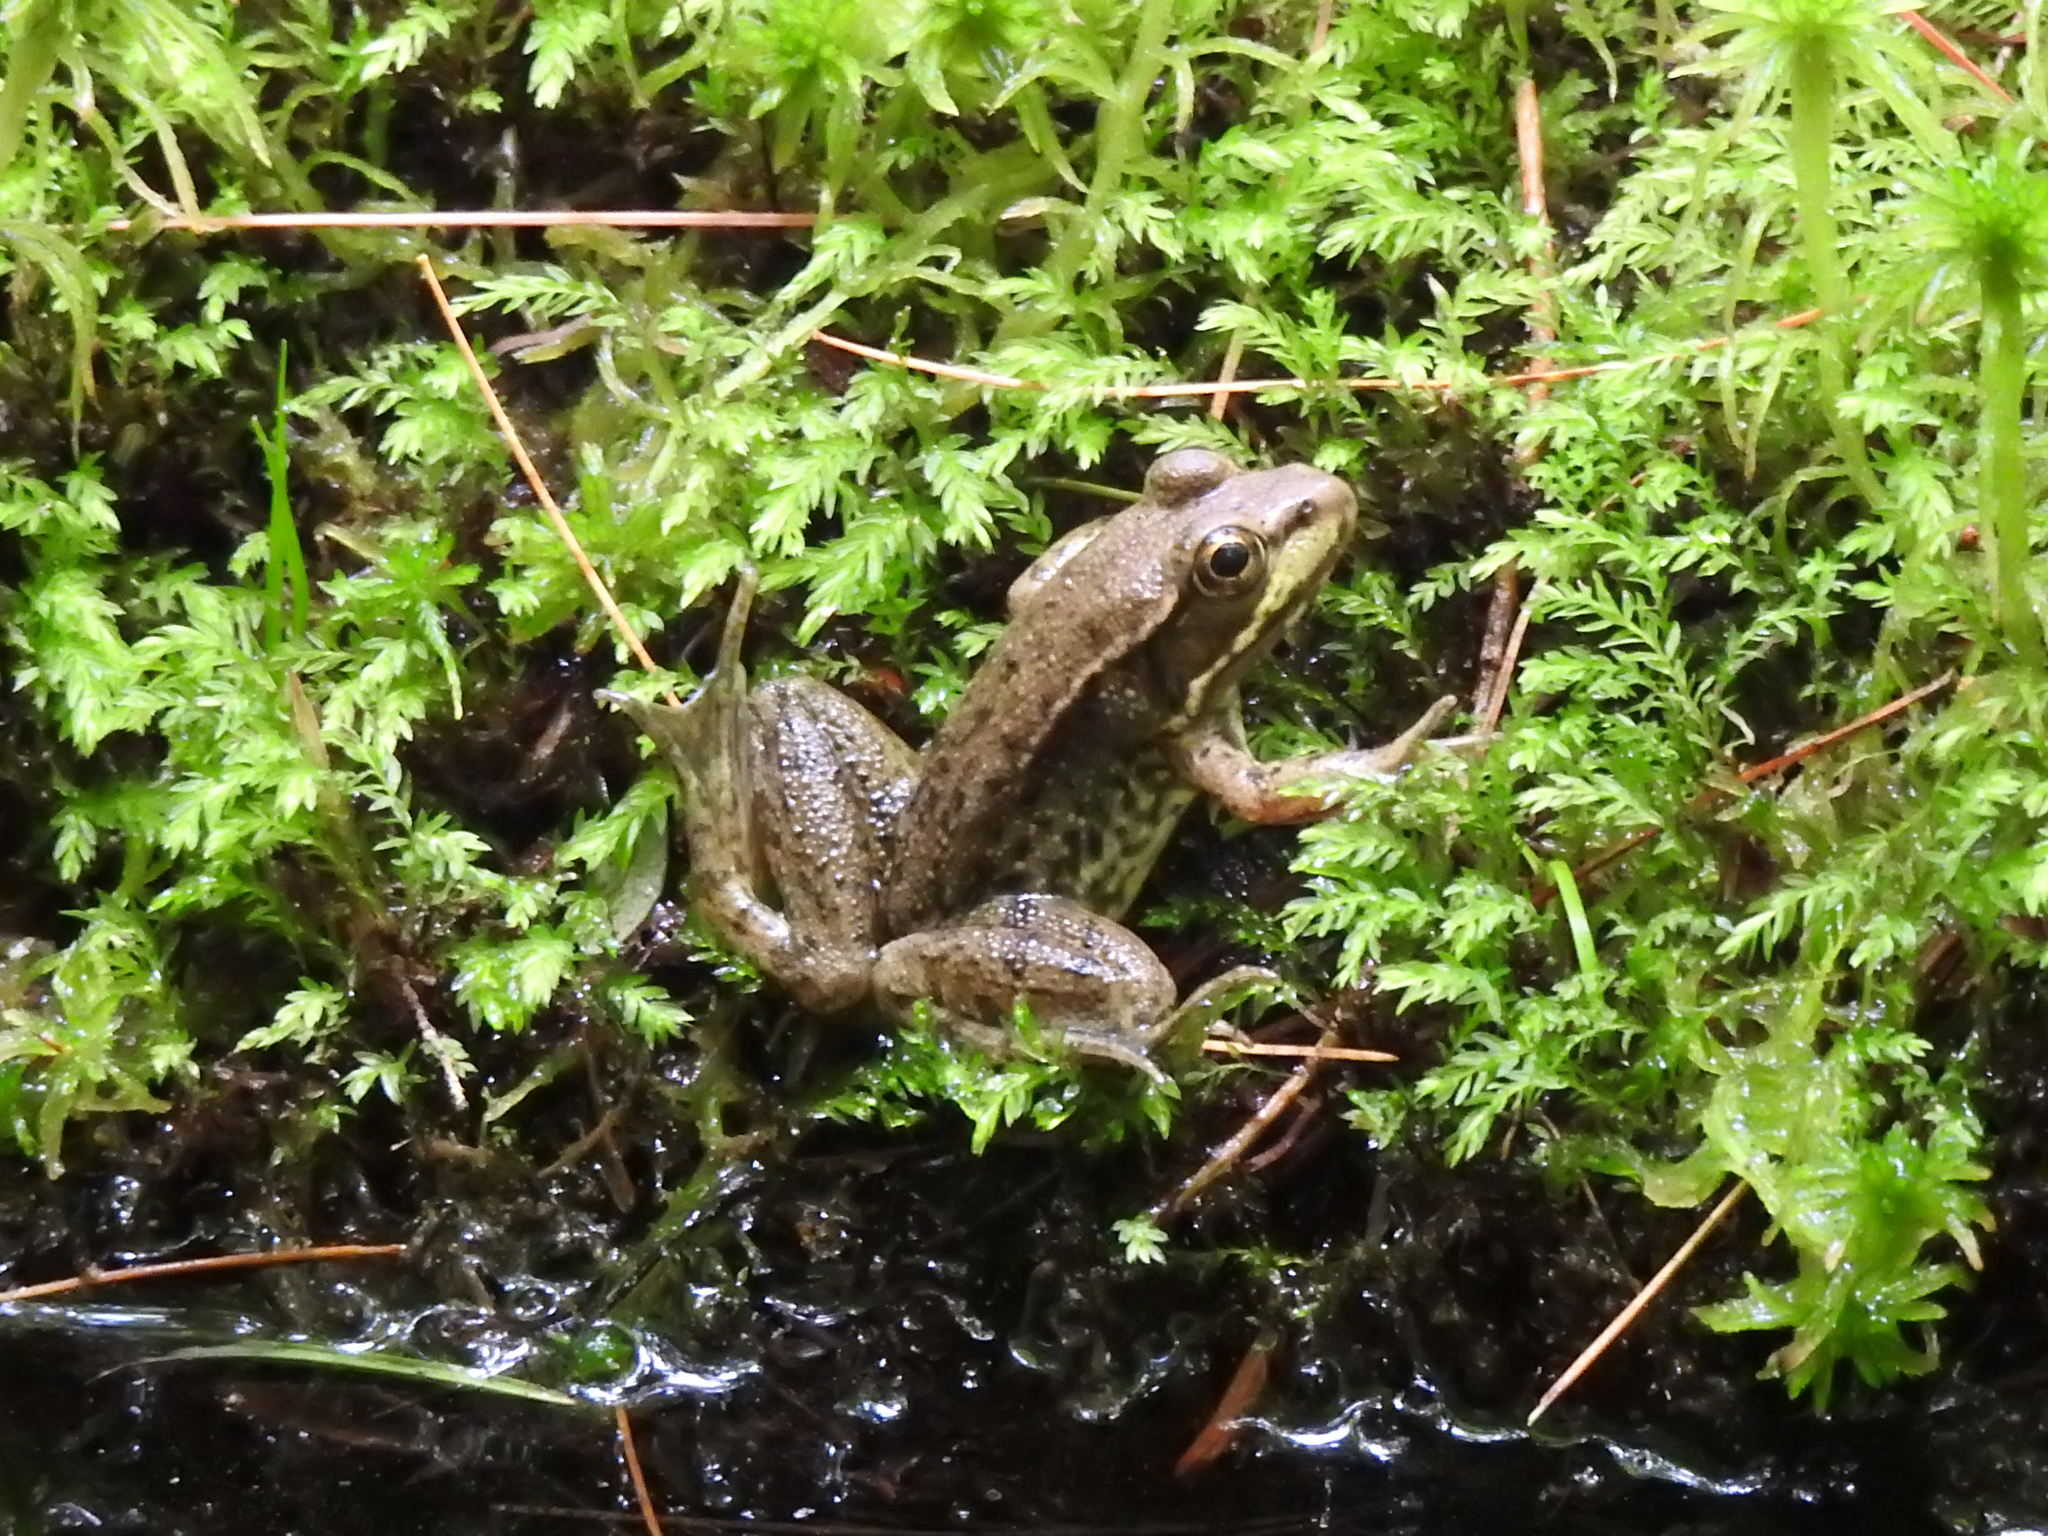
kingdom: Animalia
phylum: Chordata
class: Amphibia
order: Anura
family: Ranidae
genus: Lithobates
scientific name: Lithobates clamitans
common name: Green frog
